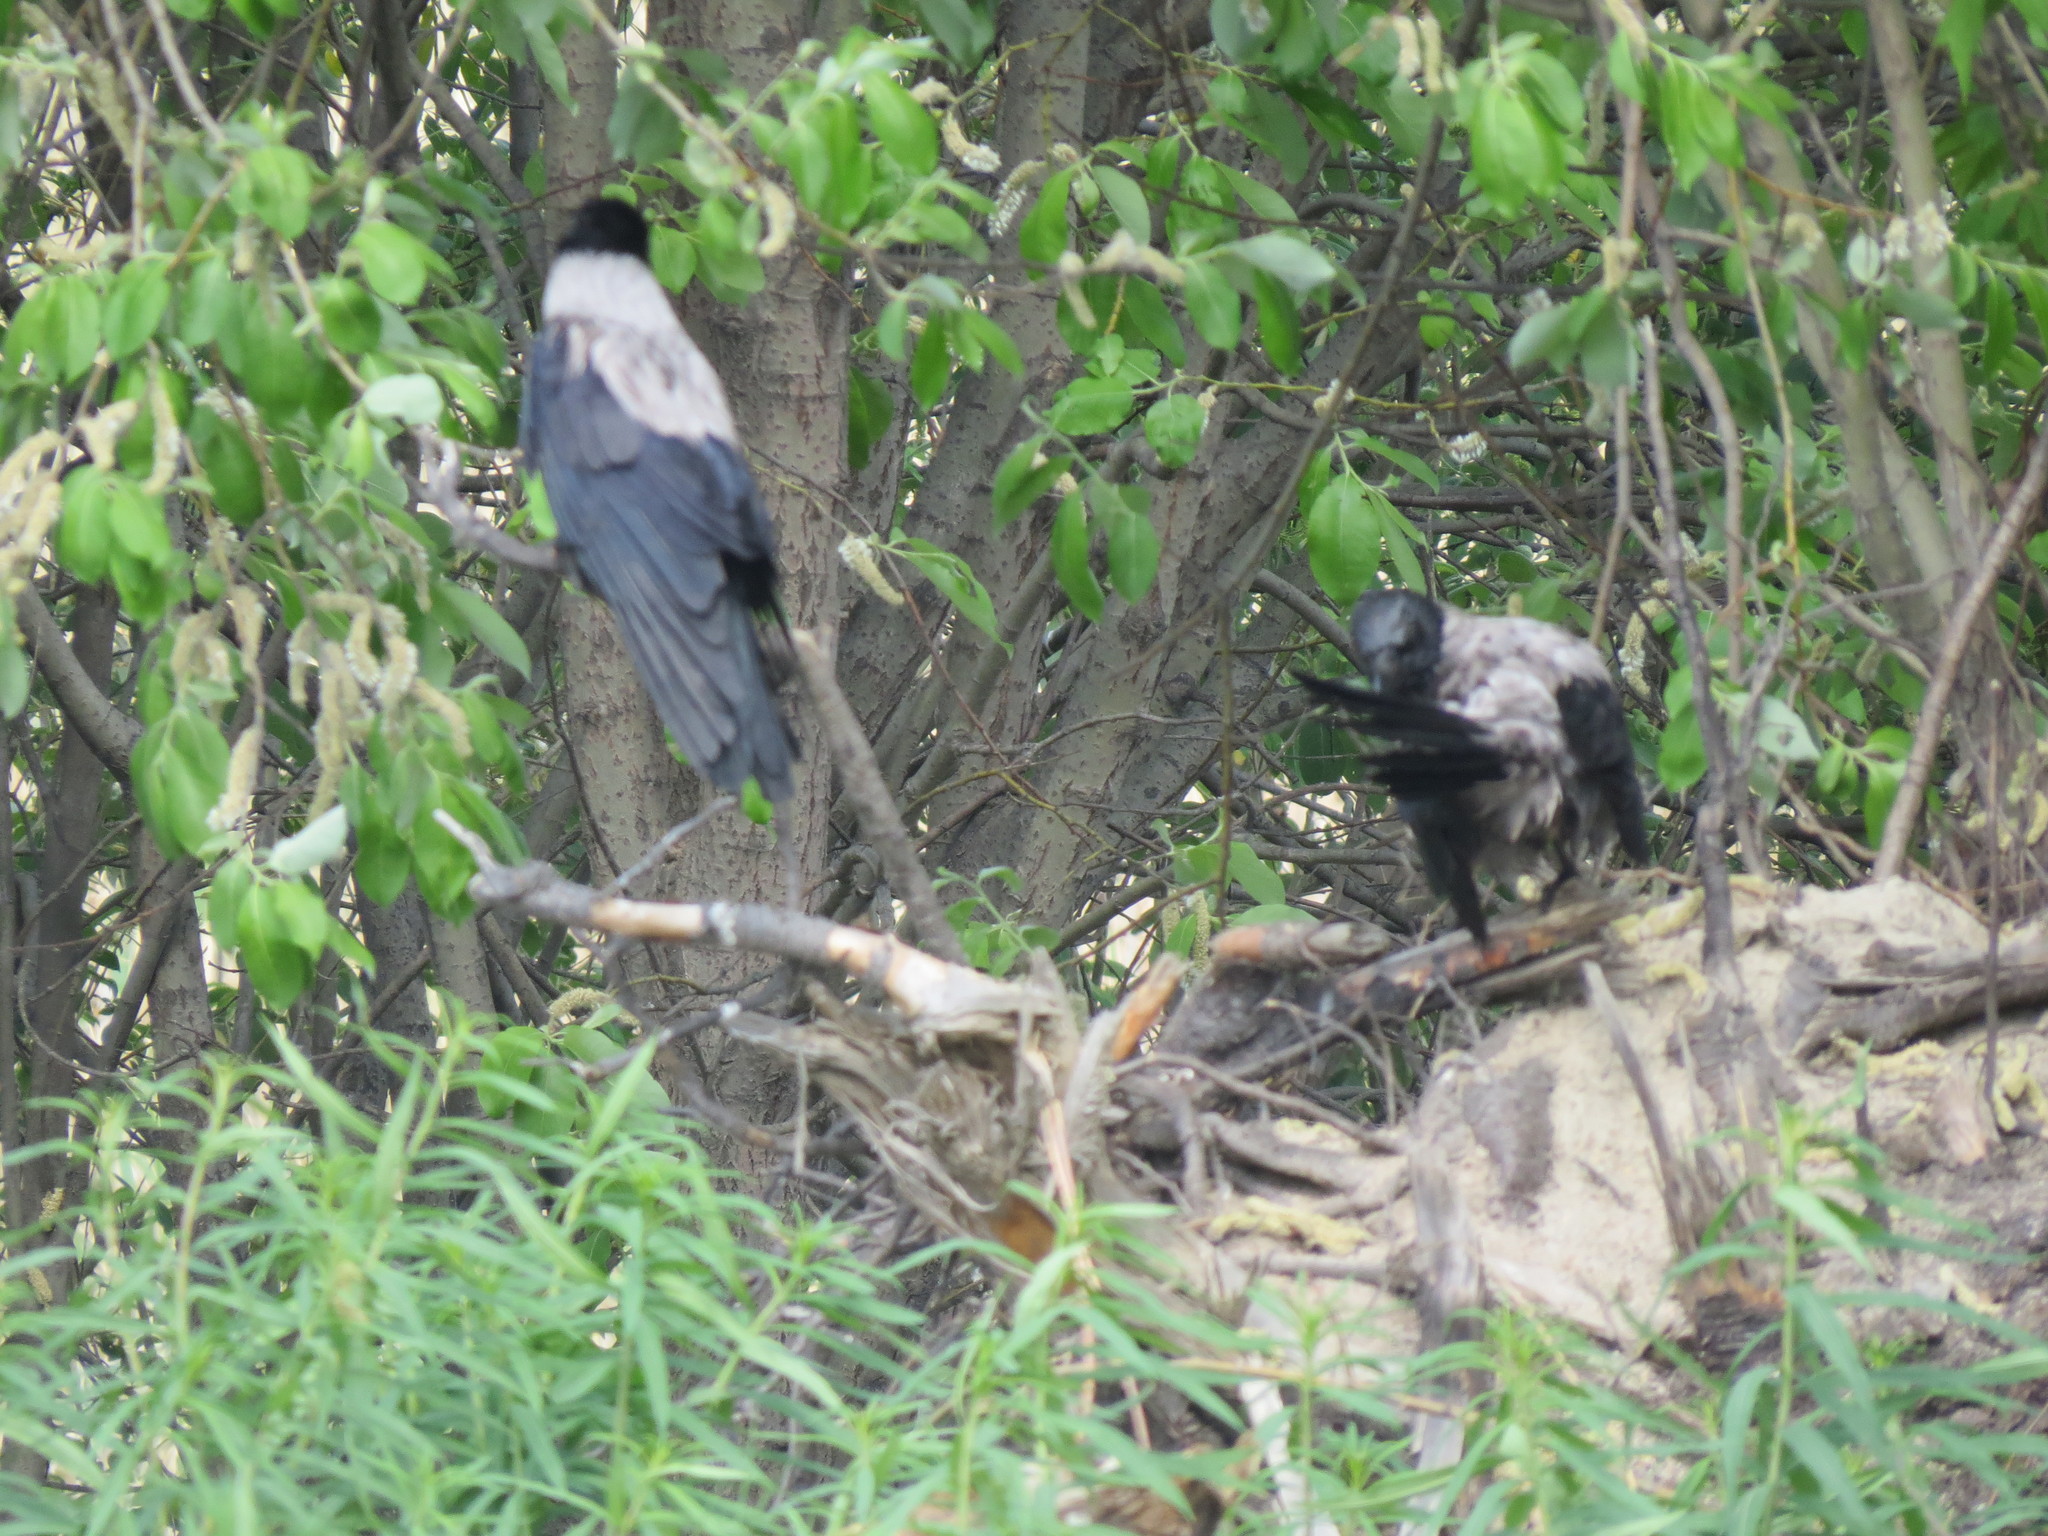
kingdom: Animalia
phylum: Chordata
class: Aves
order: Passeriformes
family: Corvidae
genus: Corvus
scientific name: Corvus cornix
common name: Hooded crow
